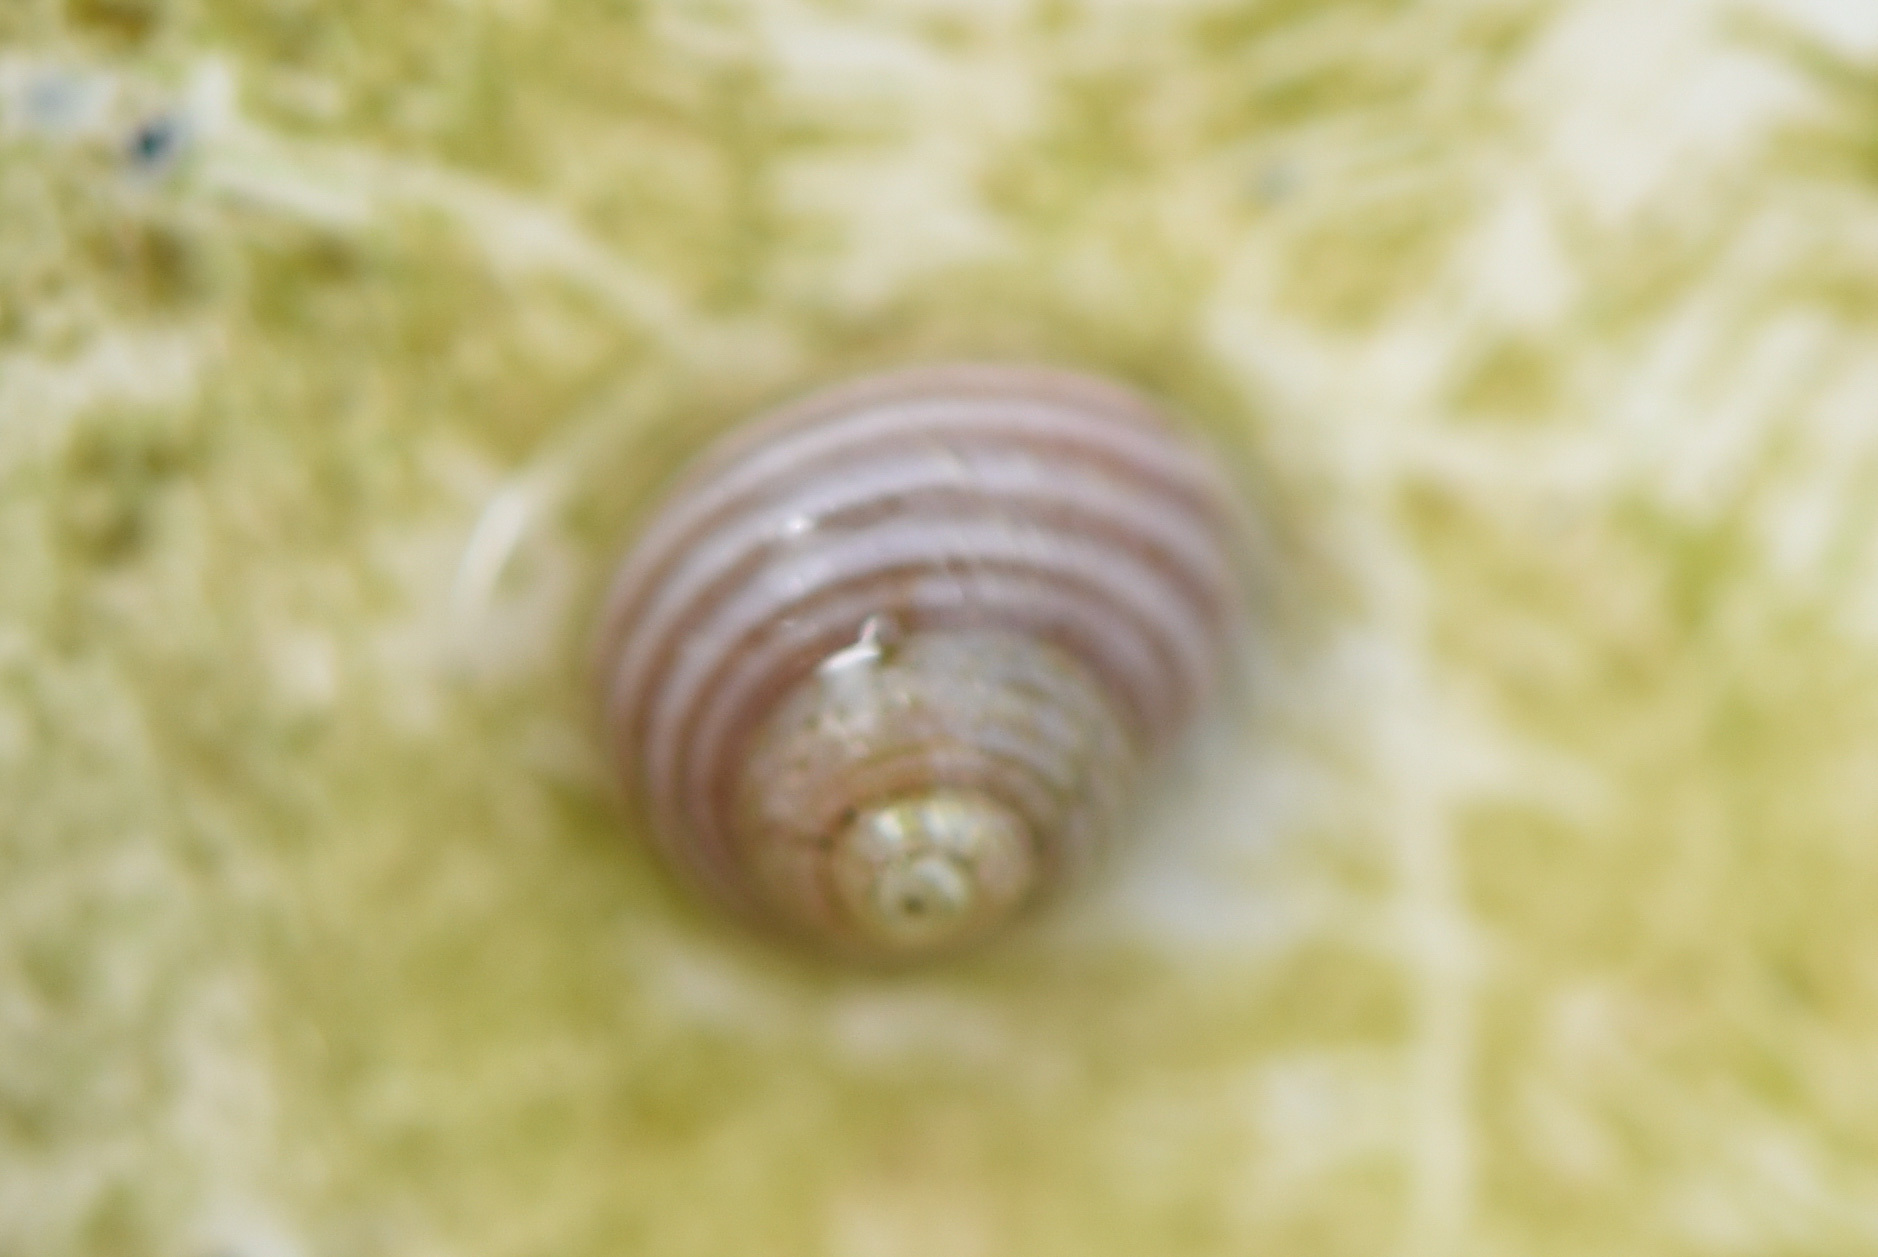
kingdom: Animalia
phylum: Mollusca
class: Gastropoda
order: Trochida
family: Margaritidae
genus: Margarites
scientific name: Margarites pupillus
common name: Puppet margarite
